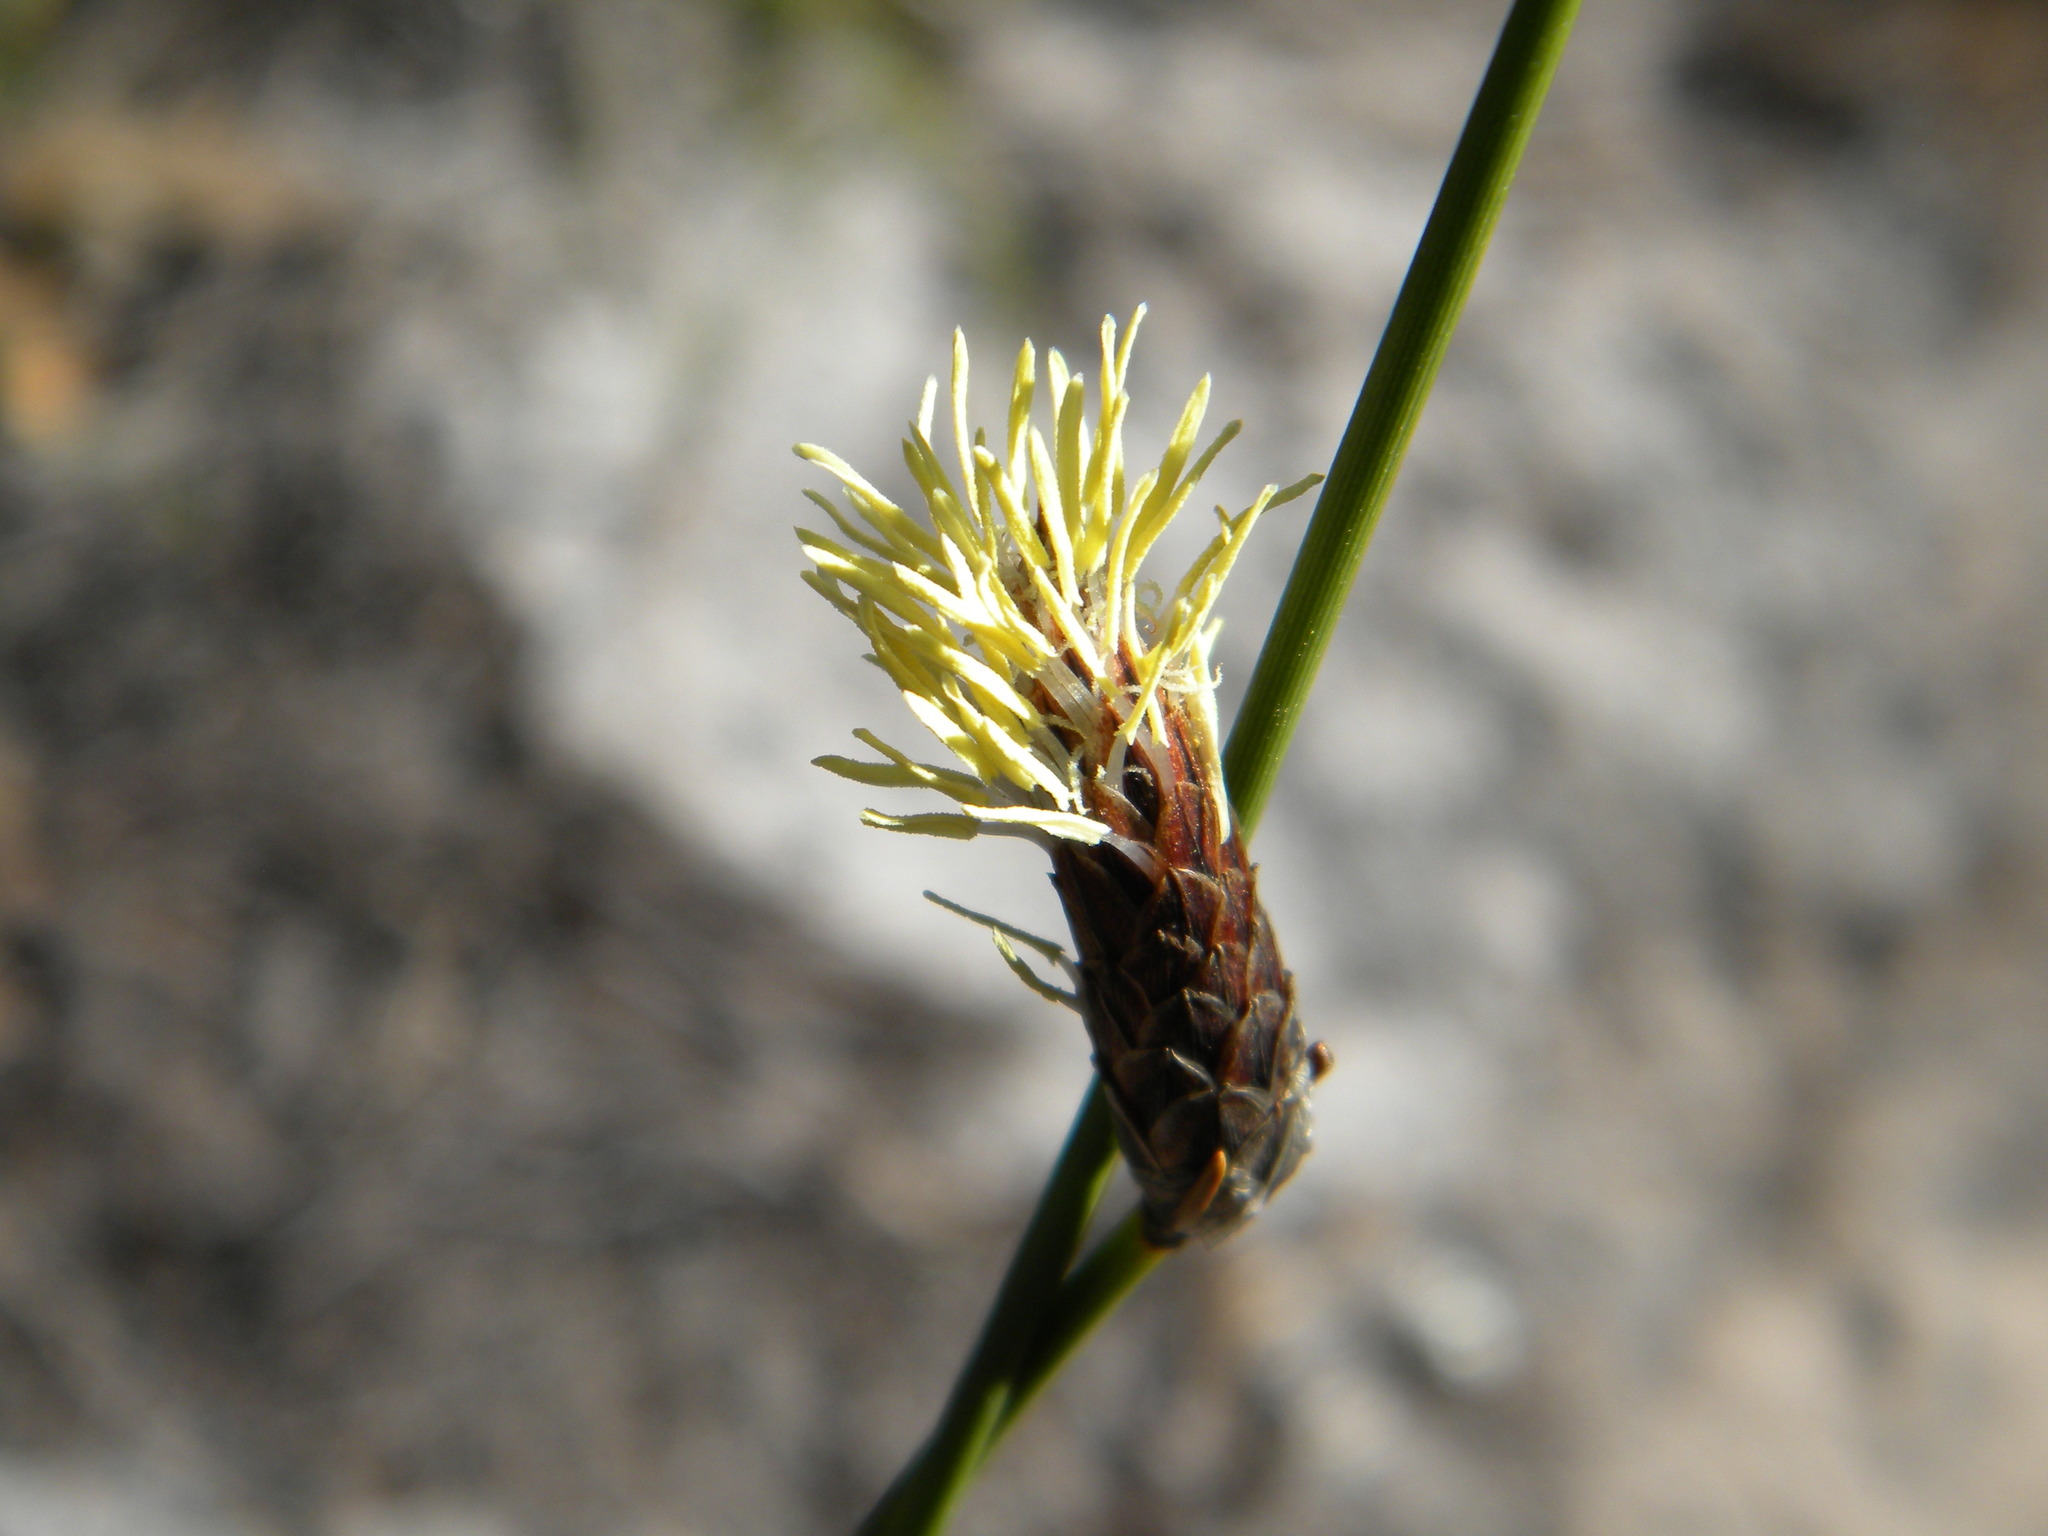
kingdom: Plantae
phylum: Tracheophyta
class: Liliopsida
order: Poales
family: Cyperaceae
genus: Ficinia
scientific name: Ficinia deusta
